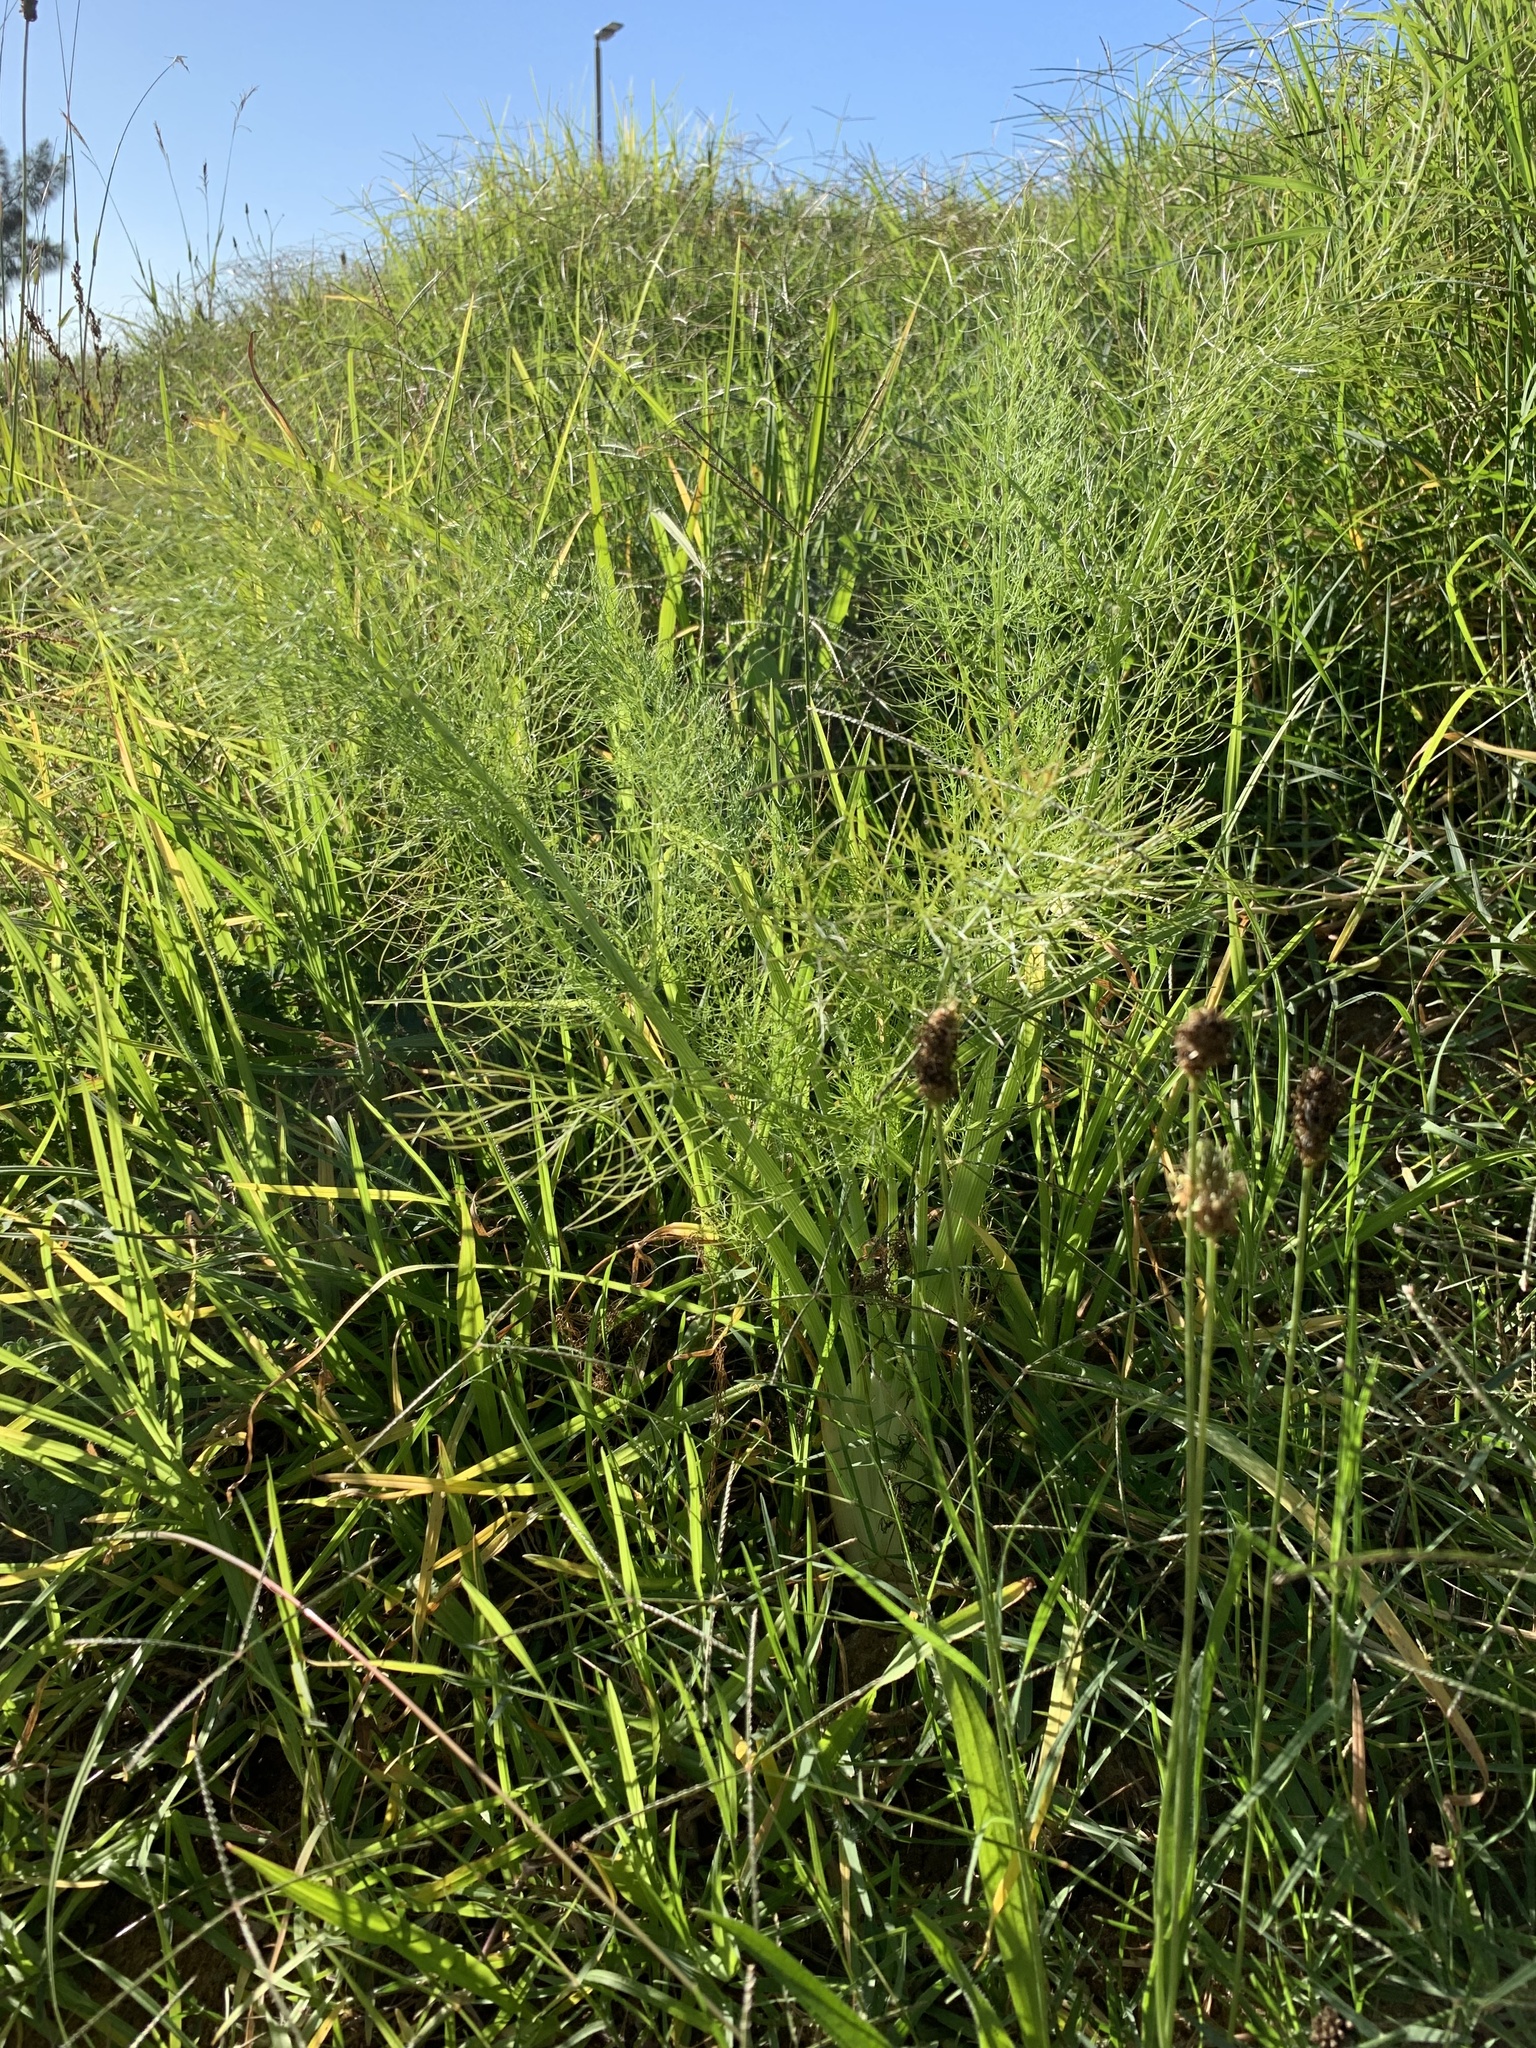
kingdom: Plantae
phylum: Tracheophyta
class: Liliopsida
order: Poales
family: Poaceae
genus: Cenchrus
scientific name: Cenchrus clandestinus
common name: Kikuyugrass
